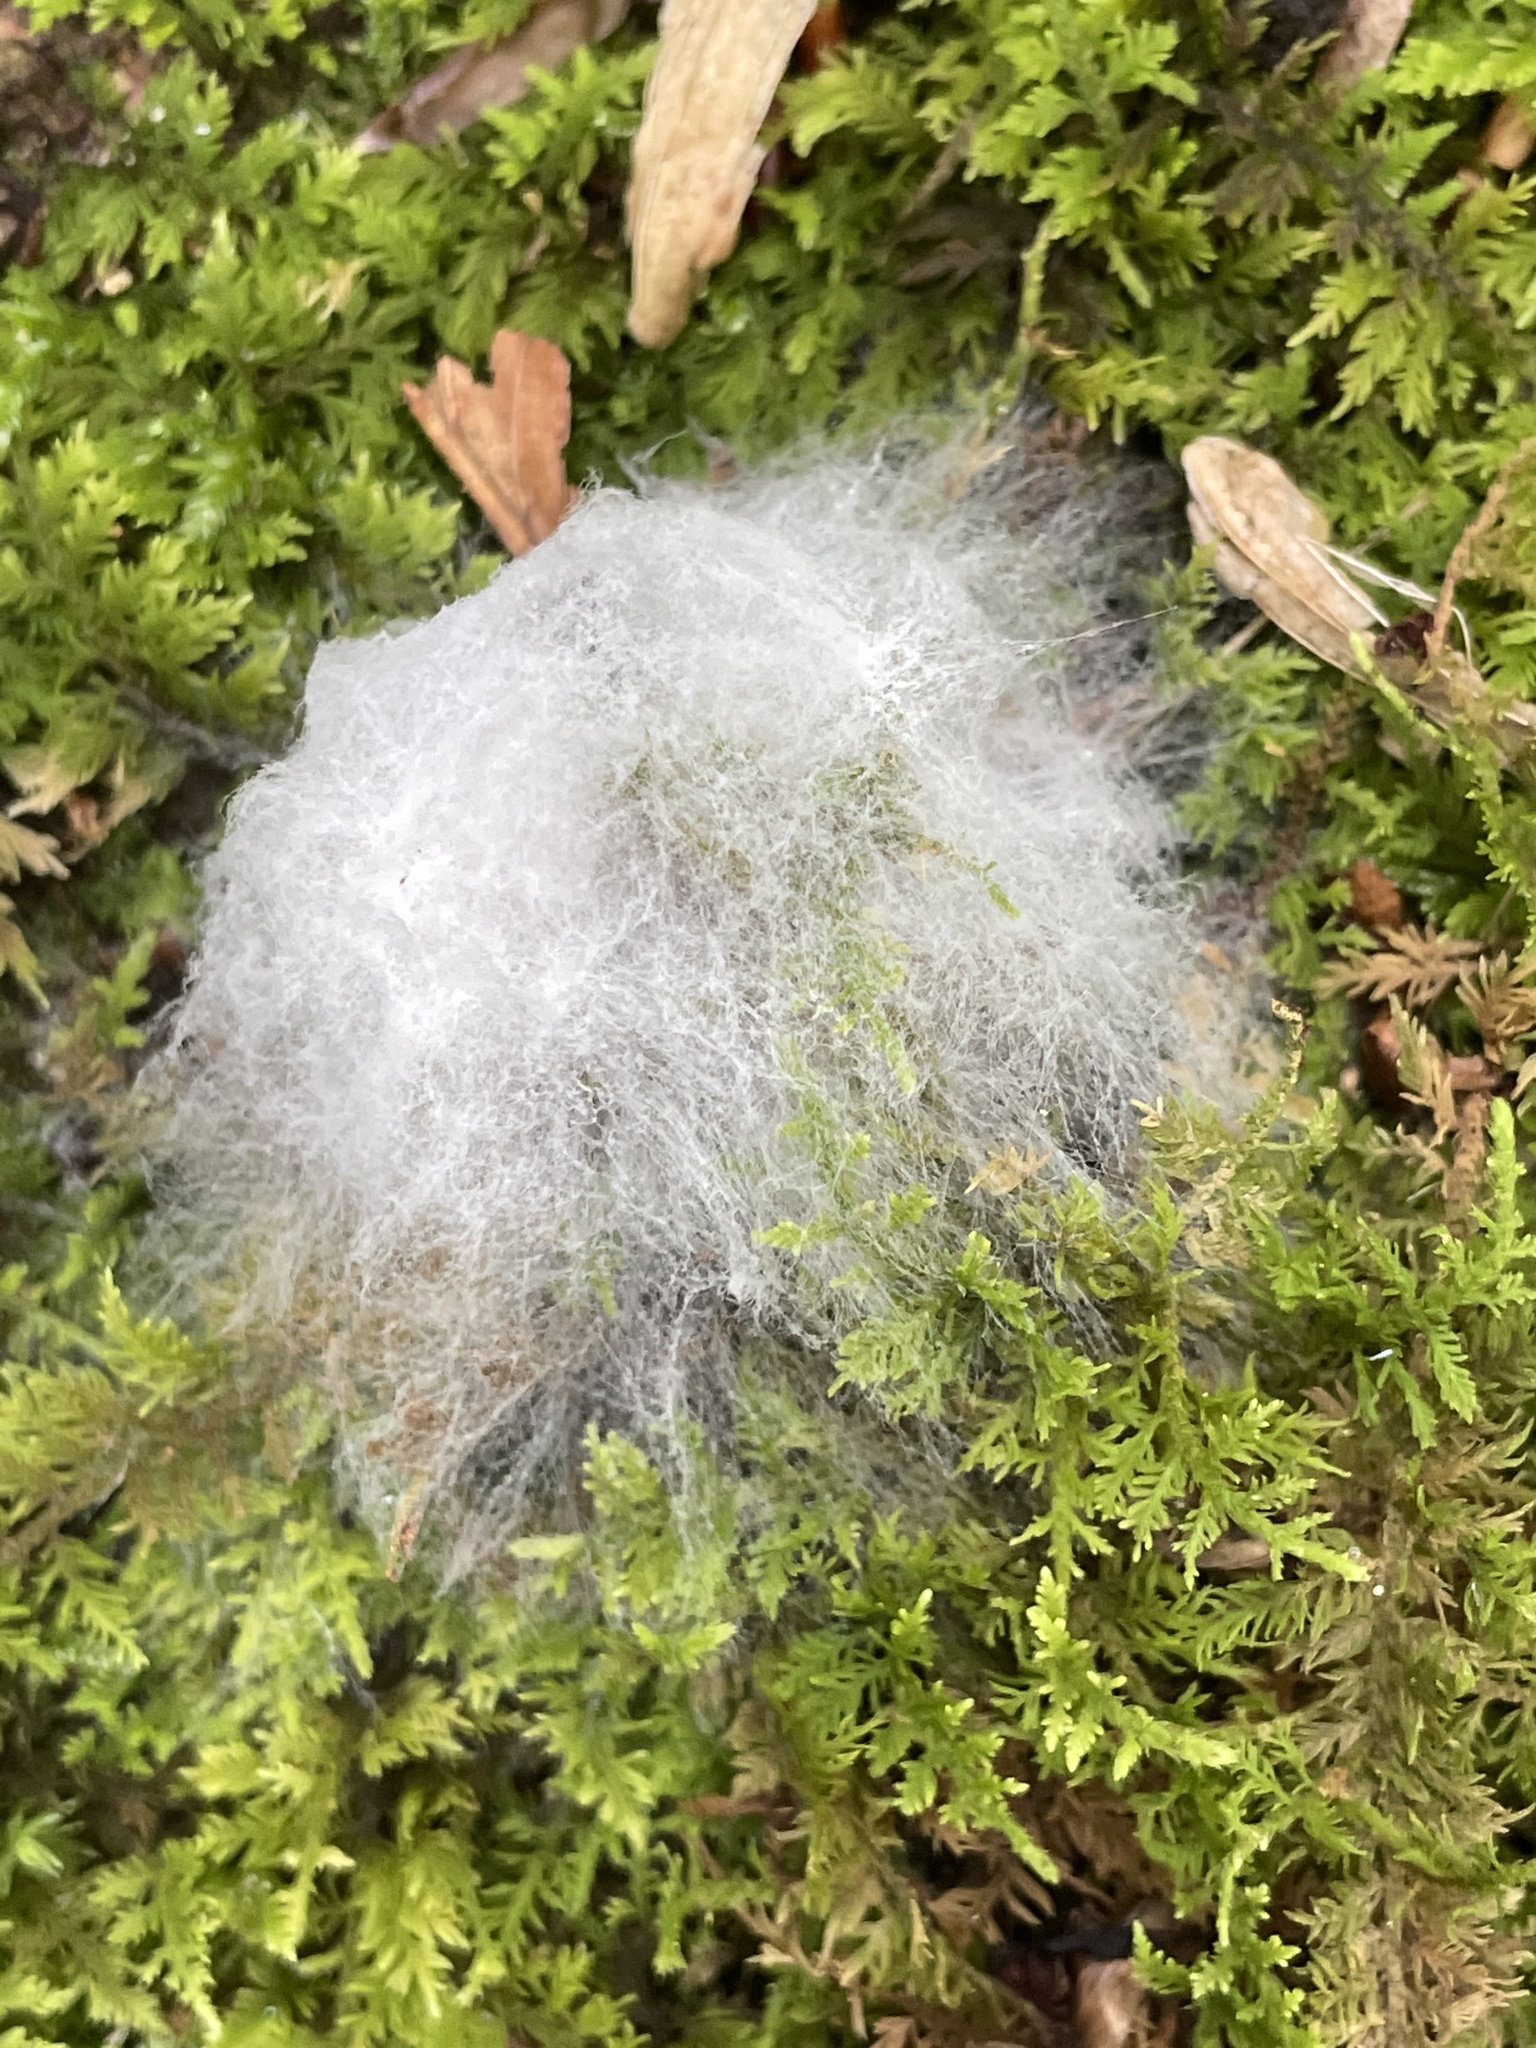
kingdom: Fungi
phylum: Mucoromycota
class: Mucoromycetes
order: Mucorales
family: Rhizopodaceae
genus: Syzygites
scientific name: Syzygites megalocarpus
